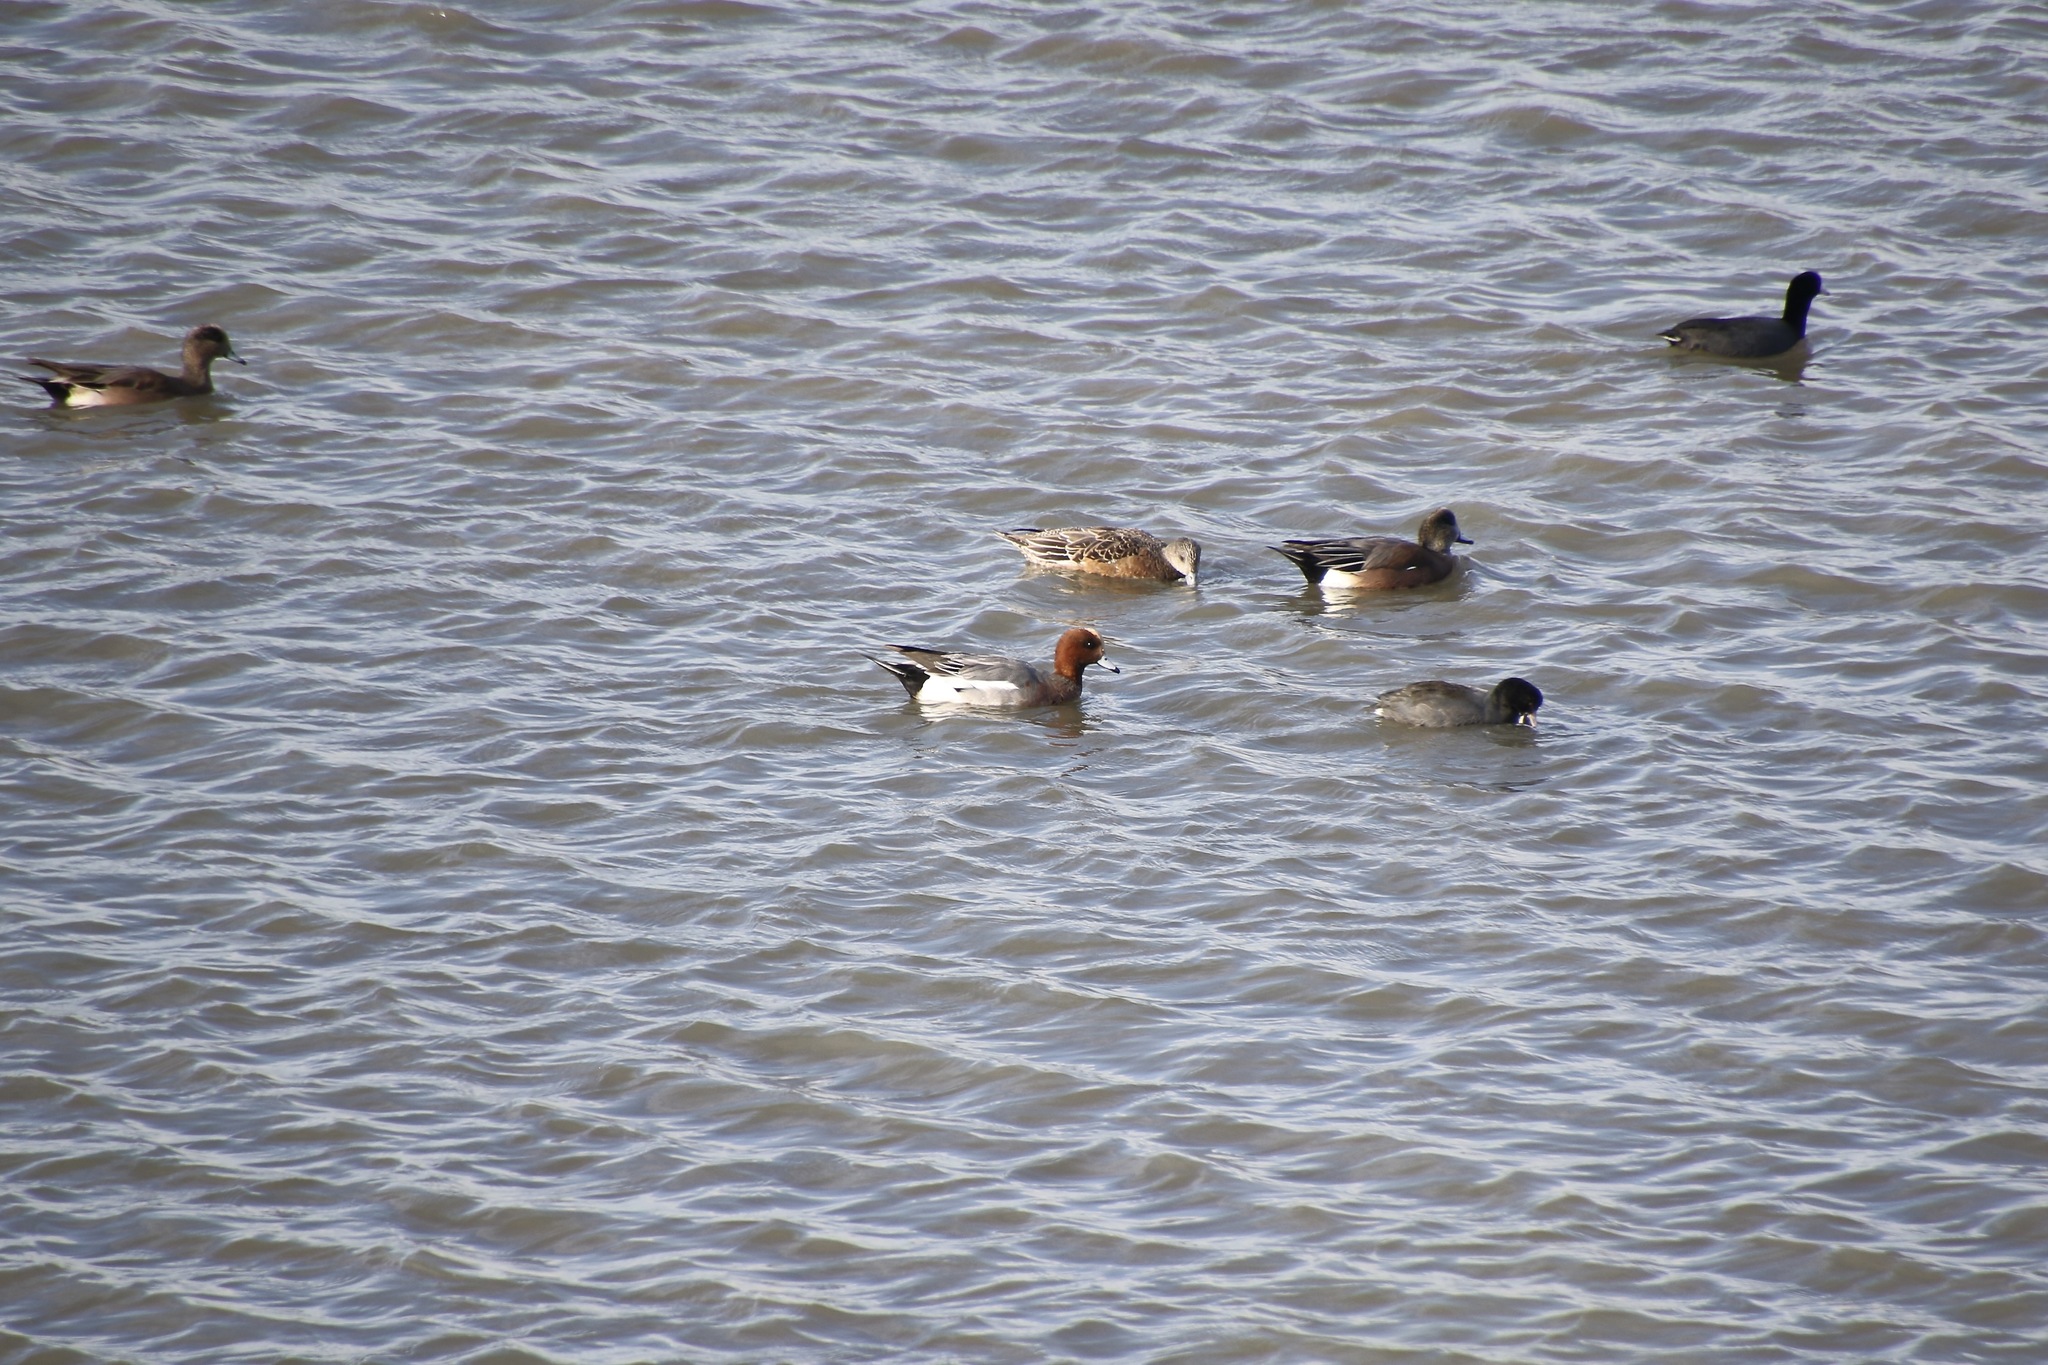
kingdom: Animalia
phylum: Chordata
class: Aves
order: Anseriformes
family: Anatidae
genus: Mareca
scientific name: Mareca penelope
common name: Eurasian wigeon
